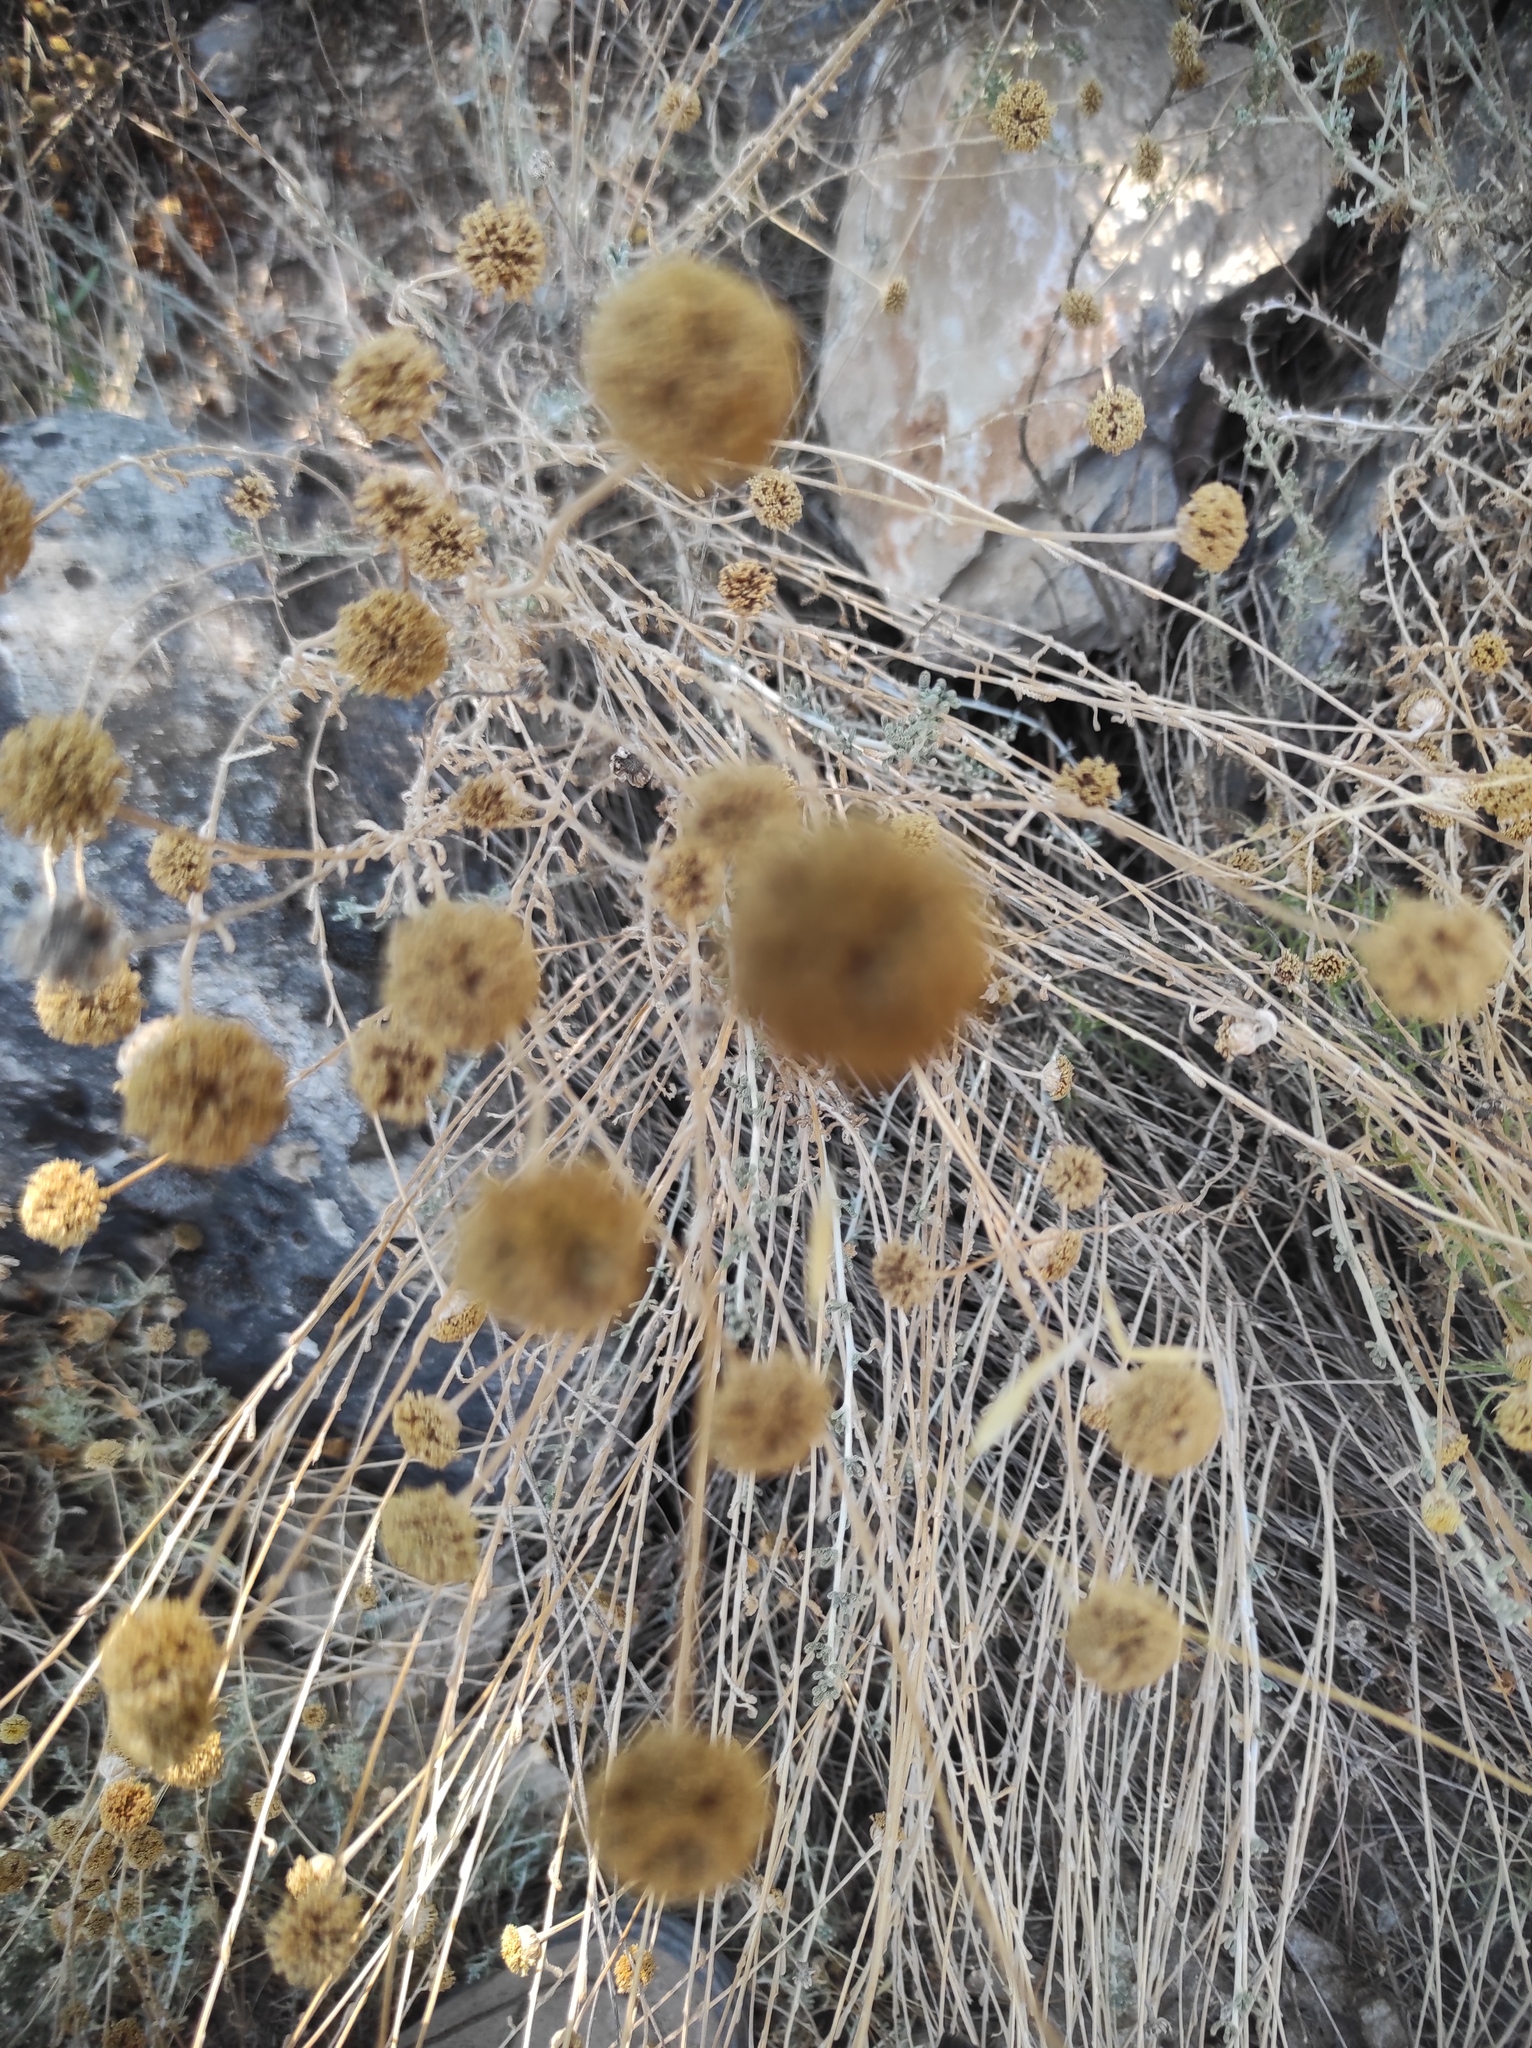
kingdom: Plantae
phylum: Tracheophyta
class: Magnoliopsida
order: Asterales
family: Asteraceae
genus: Santolina
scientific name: Santolina chamaecyparissus
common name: Lavender-cotton
